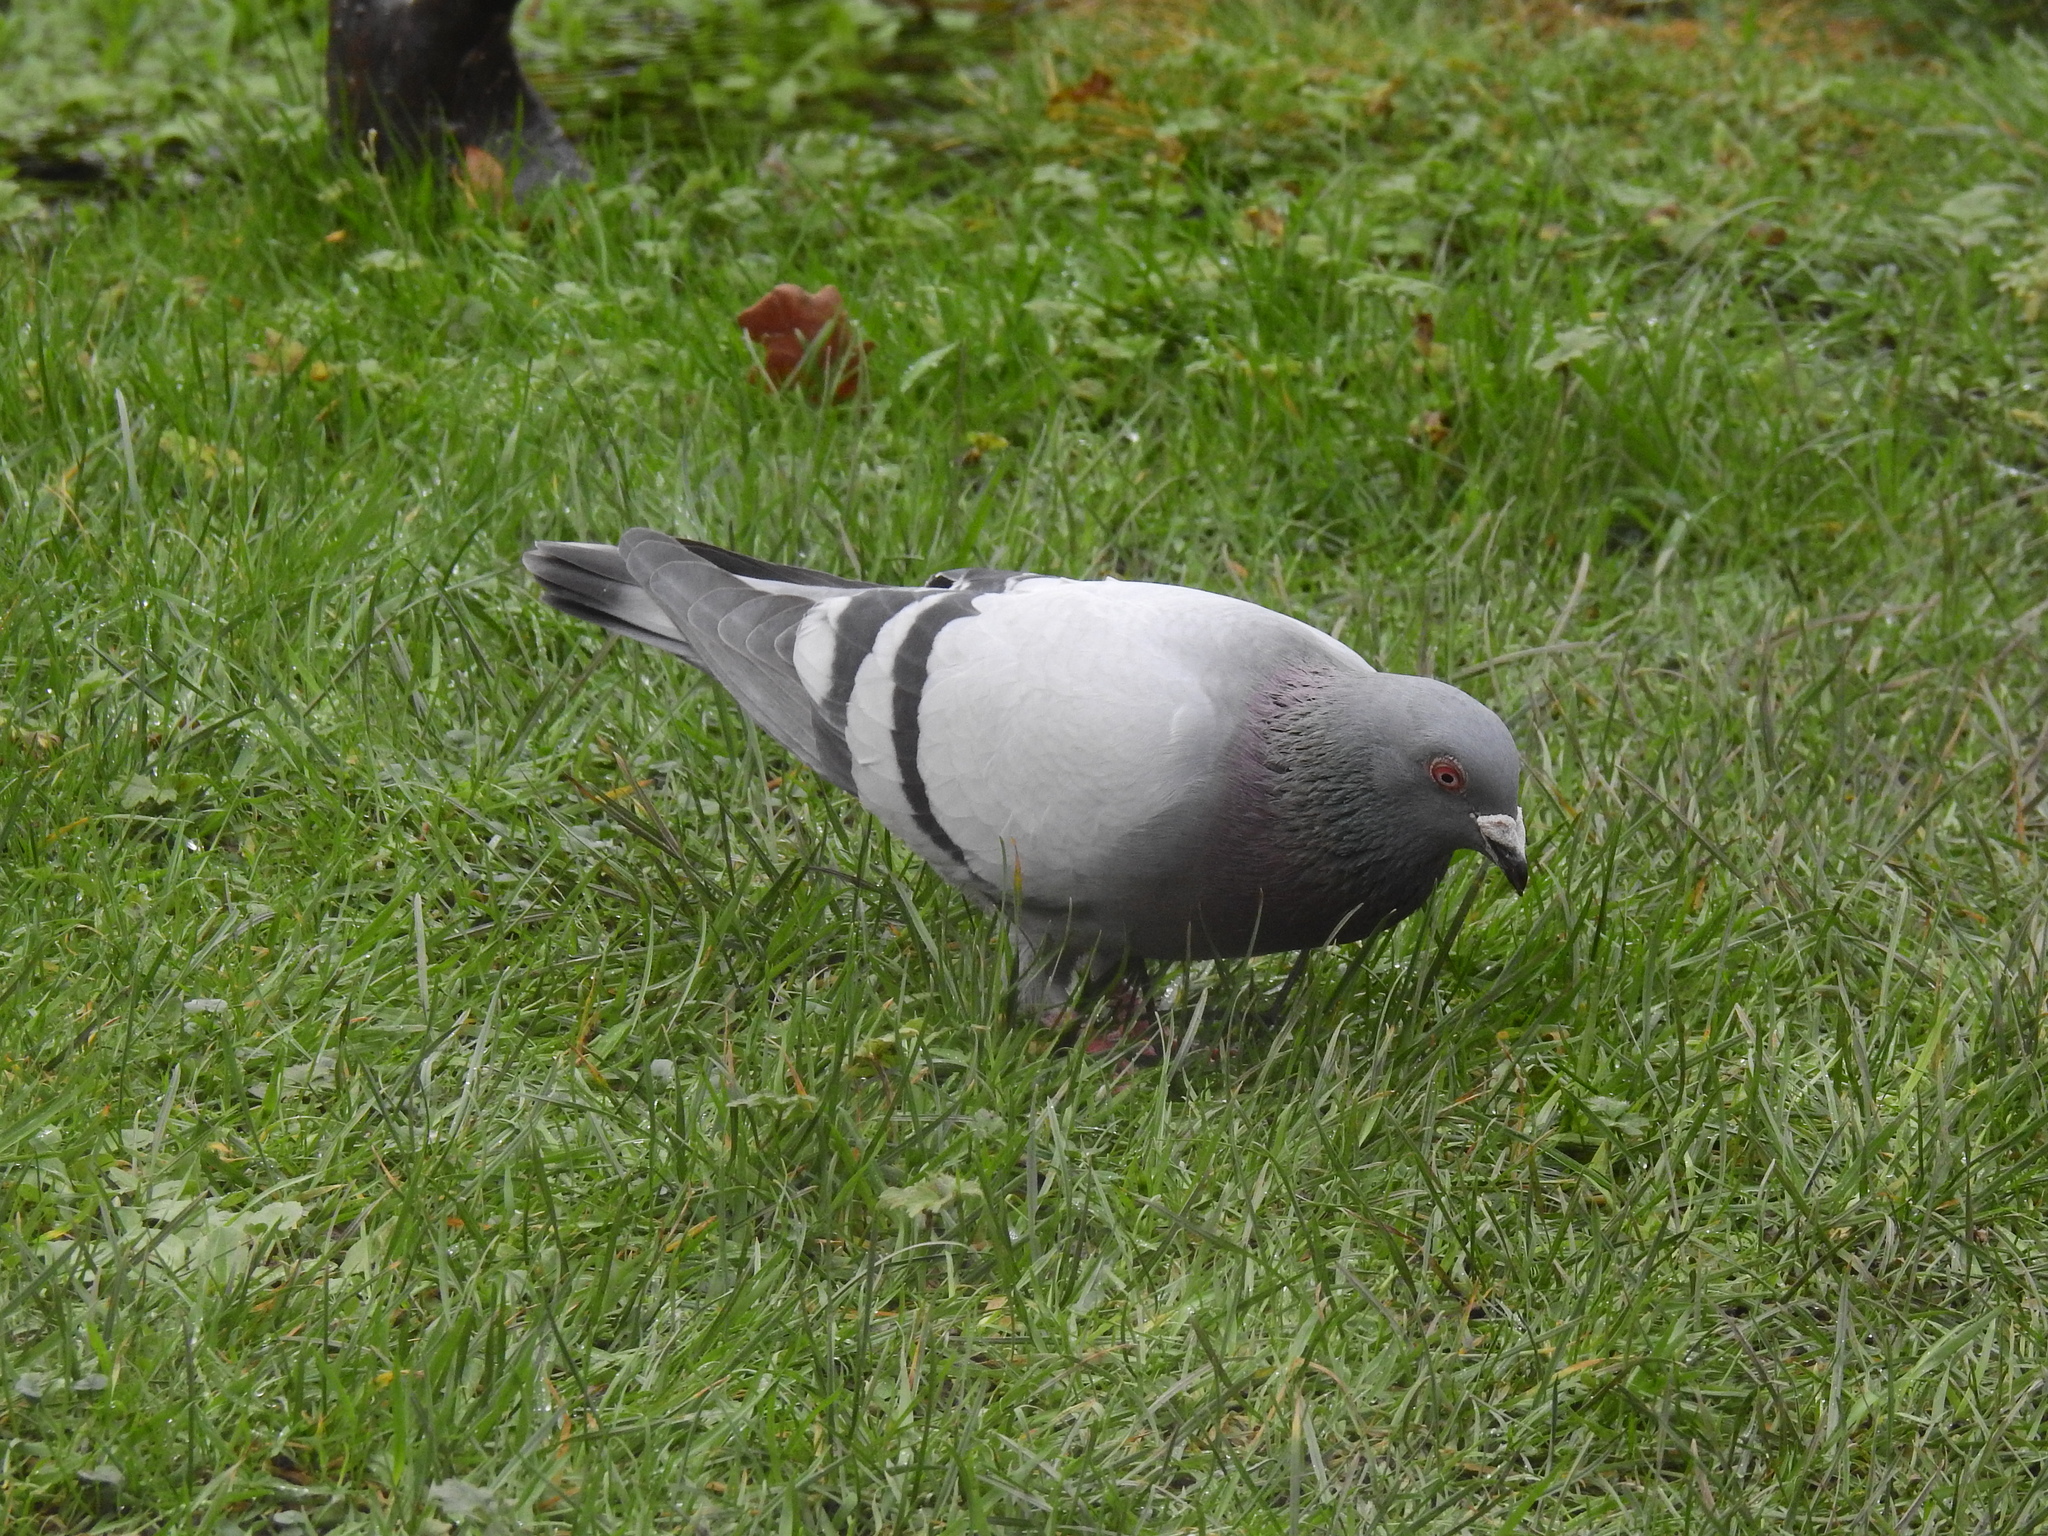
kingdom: Animalia
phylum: Chordata
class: Aves
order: Columbiformes
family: Columbidae
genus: Columba
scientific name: Columba livia
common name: Rock pigeon
